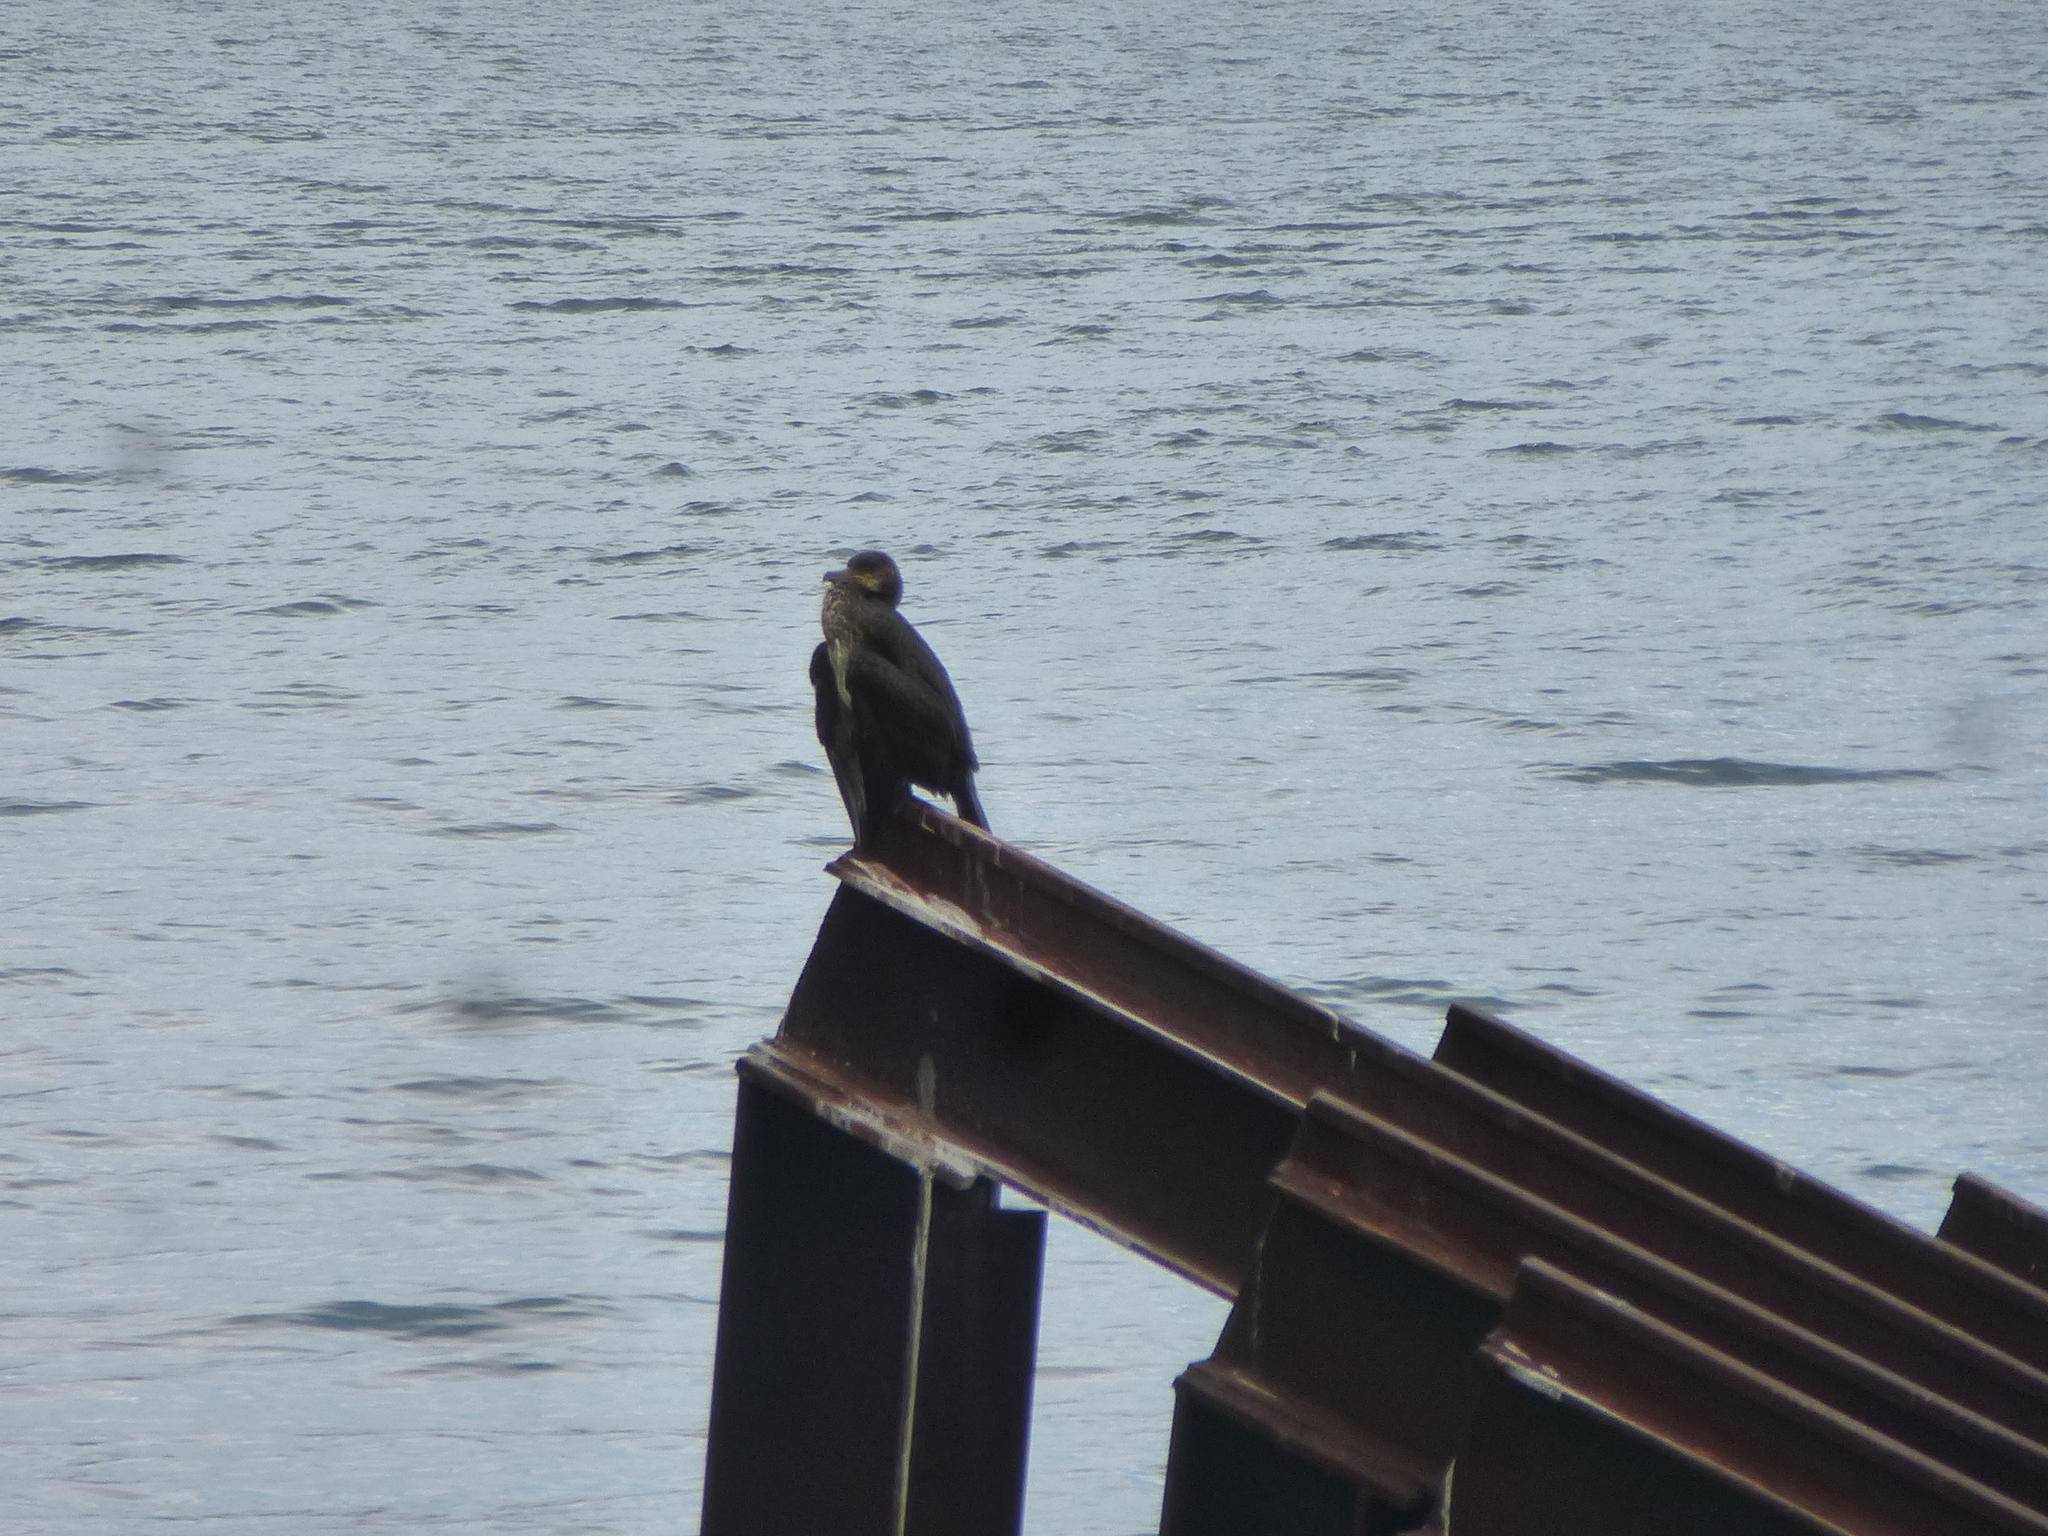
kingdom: Animalia
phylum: Chordata
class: Aves
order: Suliformes
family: Phalacrocoracidae
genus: Phalacrocorax
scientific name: Phalacrocorax carbo
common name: Great cormorant
